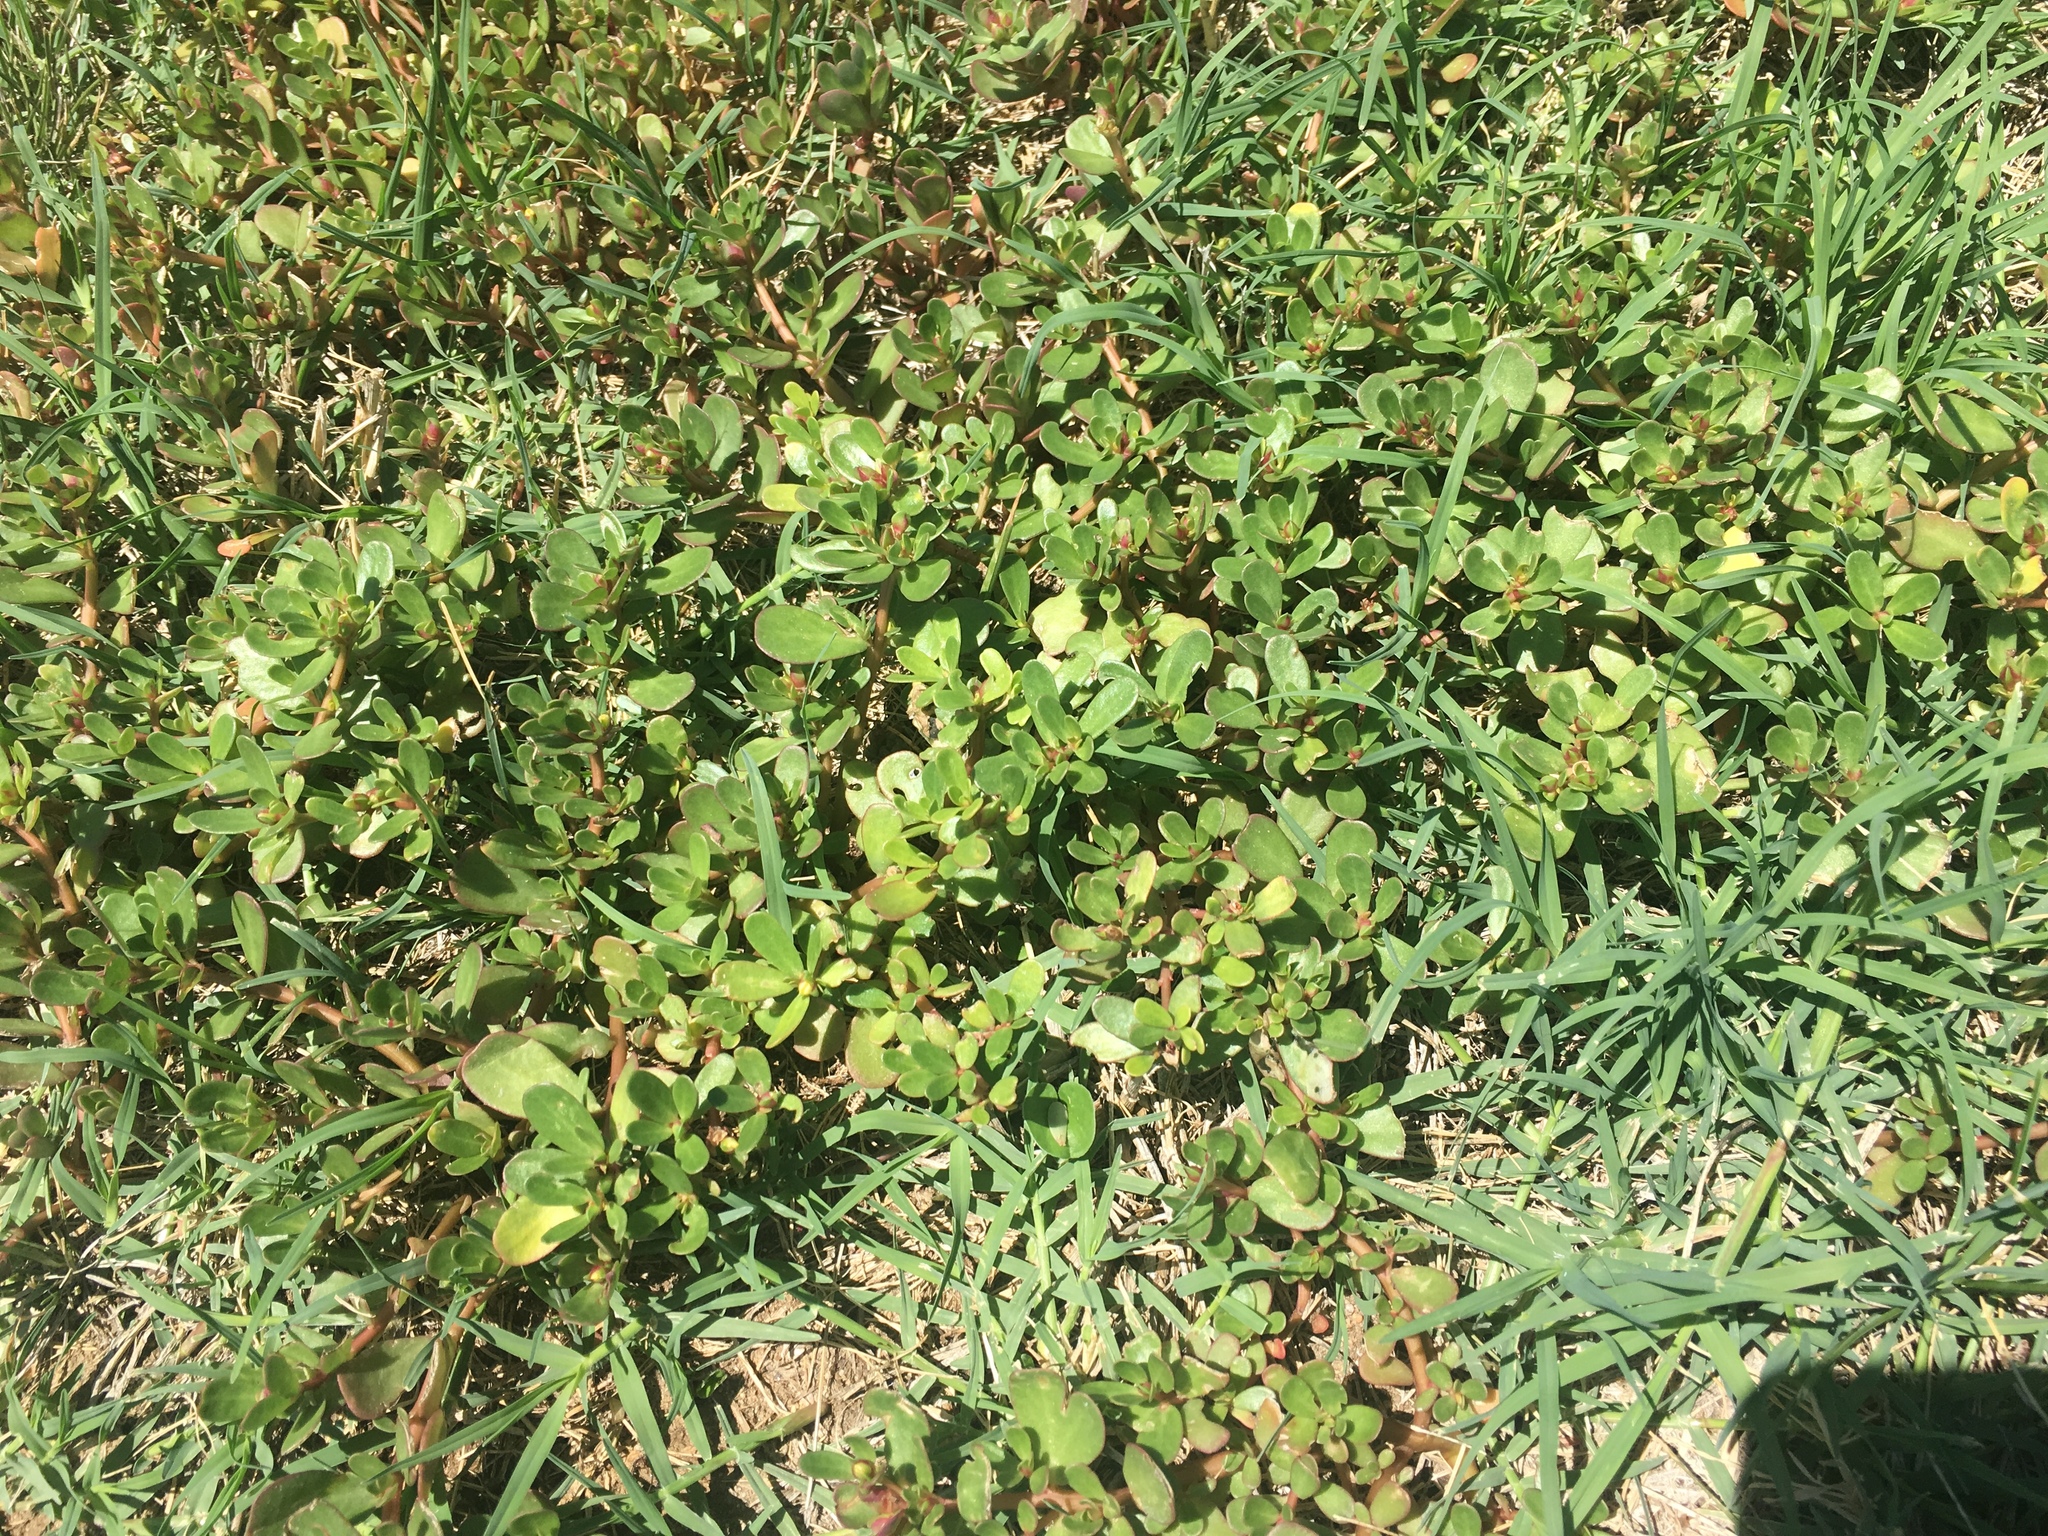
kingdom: Plantae
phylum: Tracheophyta
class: Magnoliopsida
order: Caryophyllales
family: Portulacaceae
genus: Portulaca
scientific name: Portulaca oleracea
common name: Common purslane
